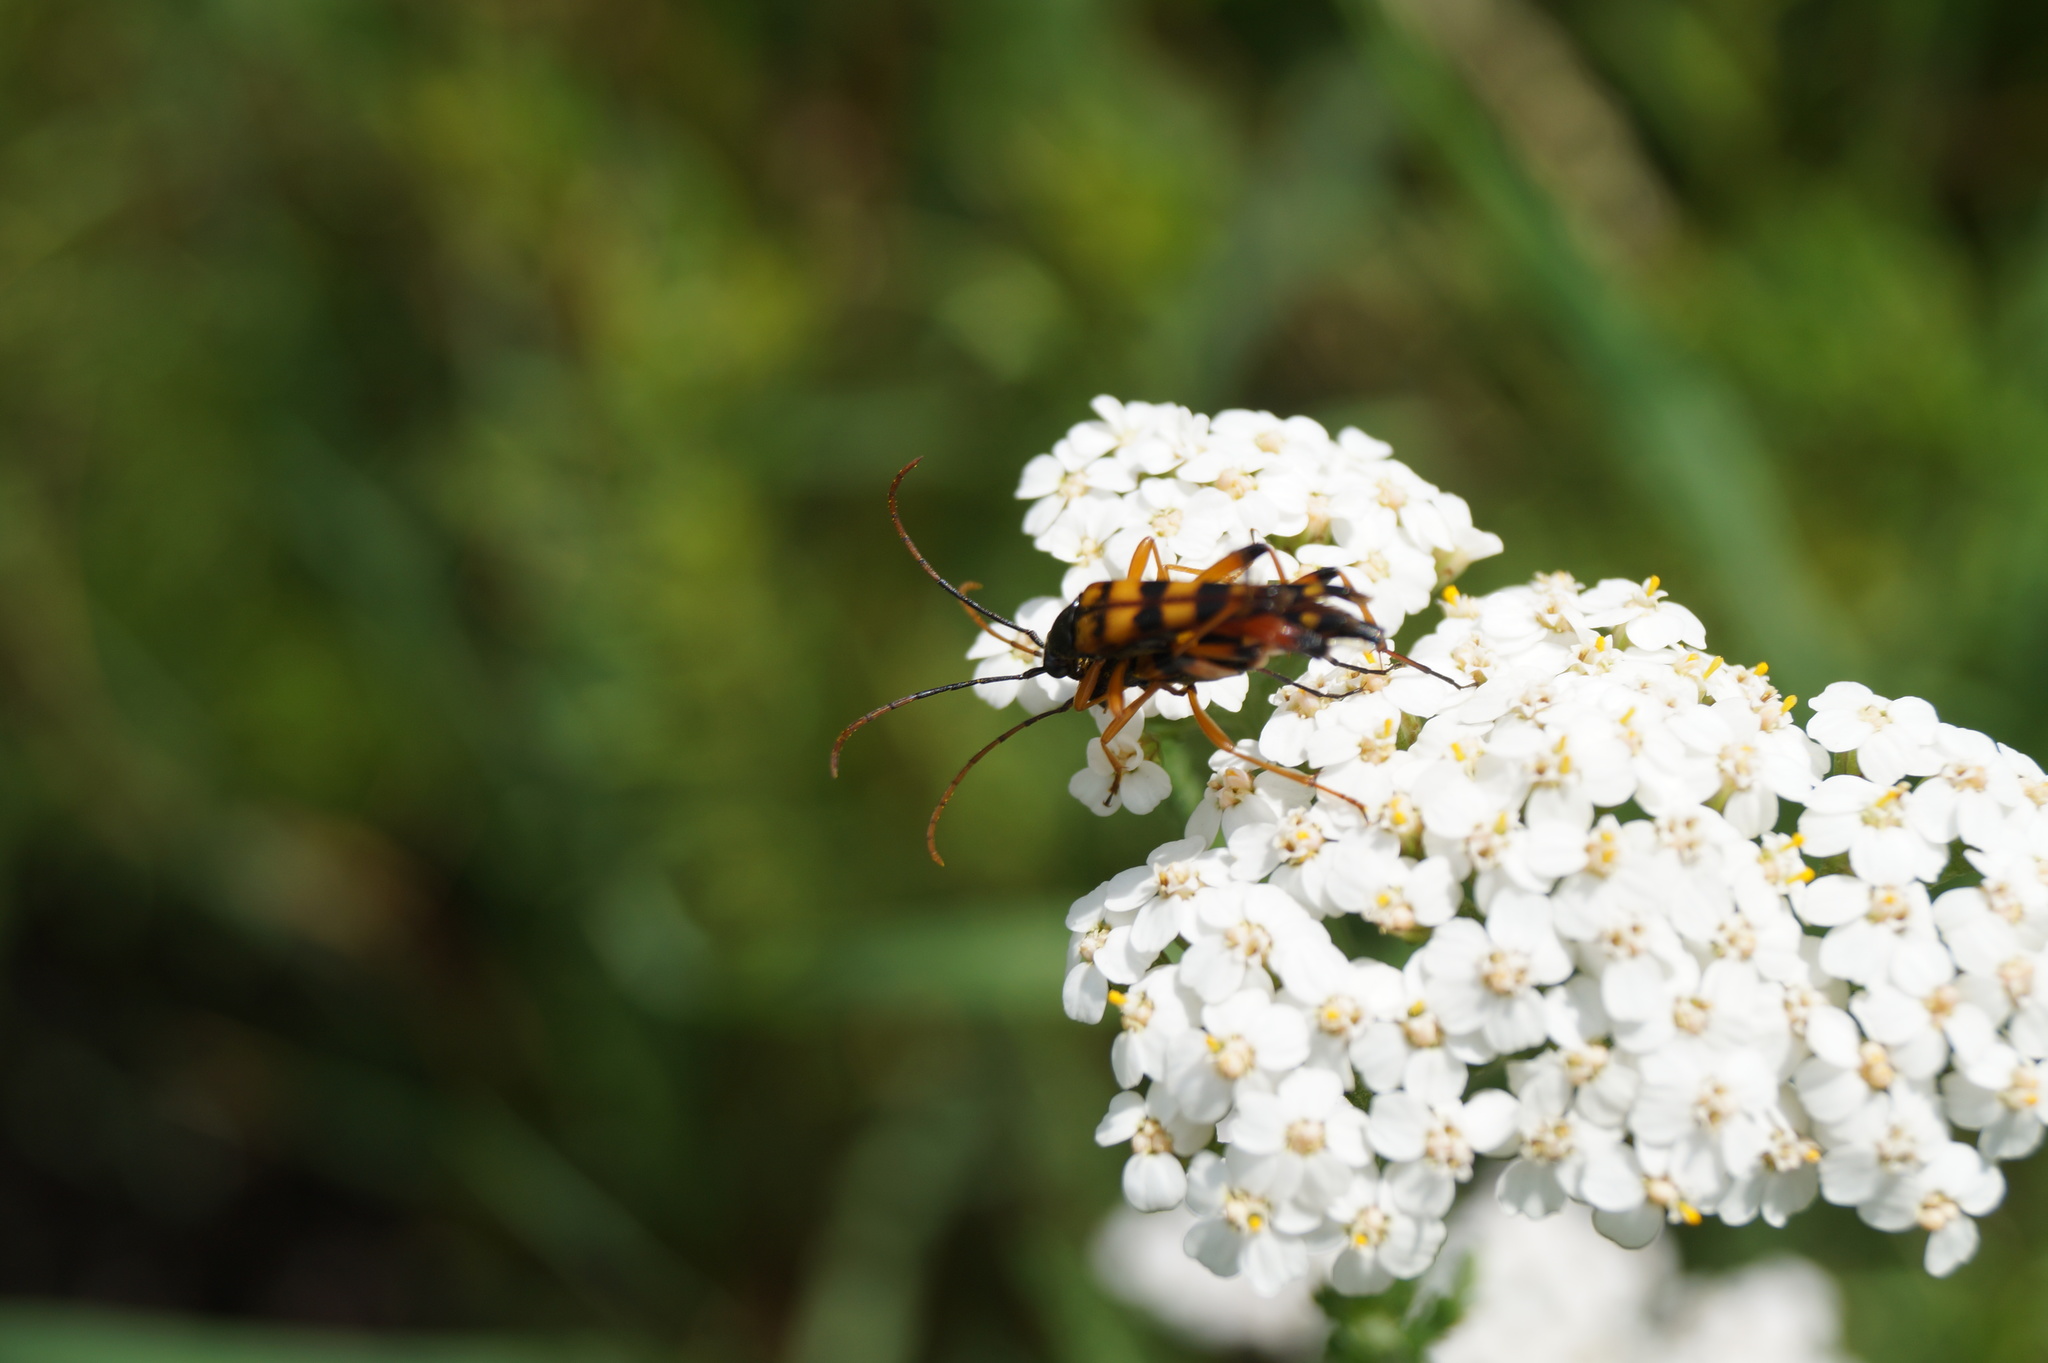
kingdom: Animalia
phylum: Arthropoda
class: Insecta
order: Coleoptera
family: Cerambycidae
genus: Strangalia
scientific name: Strangalia attenuata
